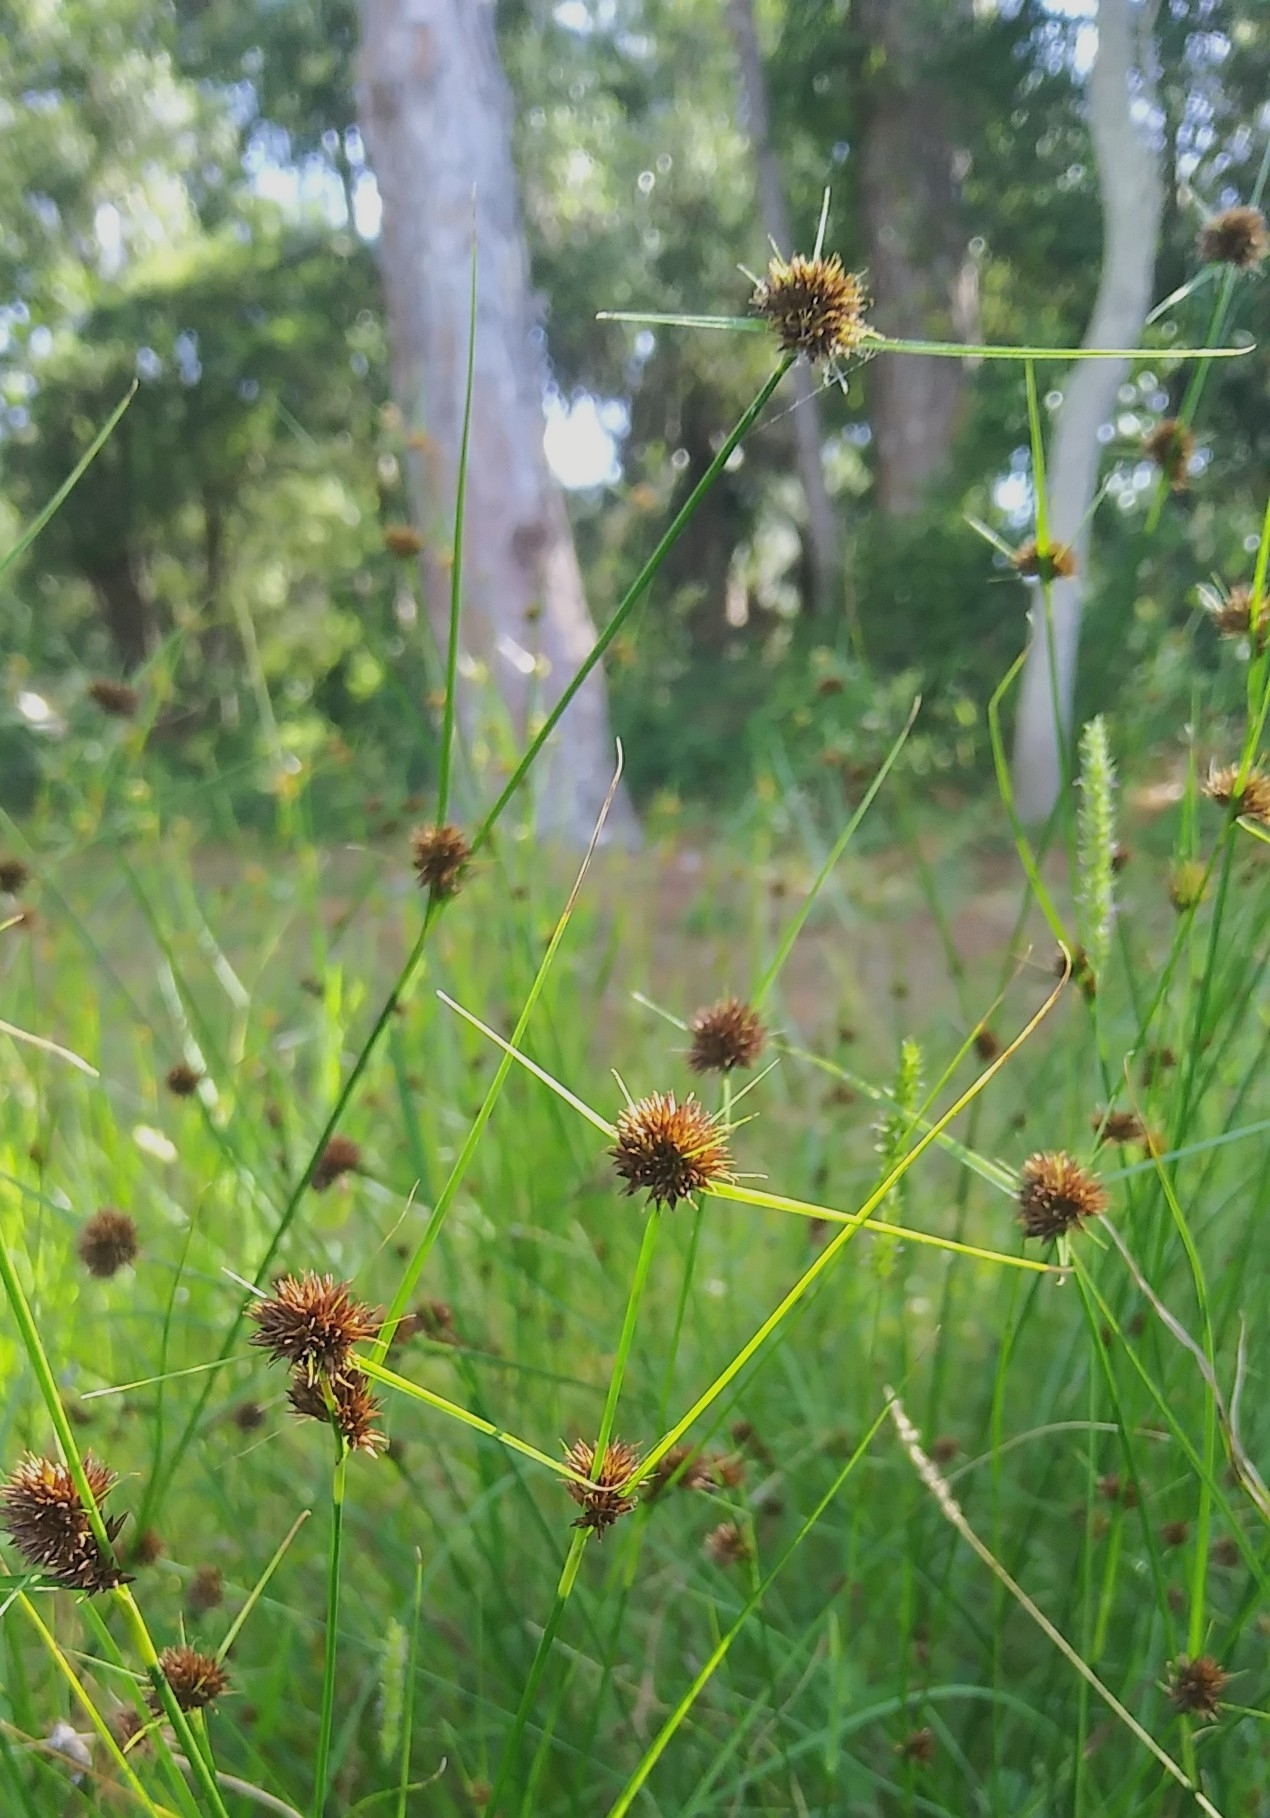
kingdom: Plantae
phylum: Tracheophyta
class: Liliopsida
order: Poales
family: Cyperaceae
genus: Rhynchospora
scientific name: Rhynchospora cephalantha
